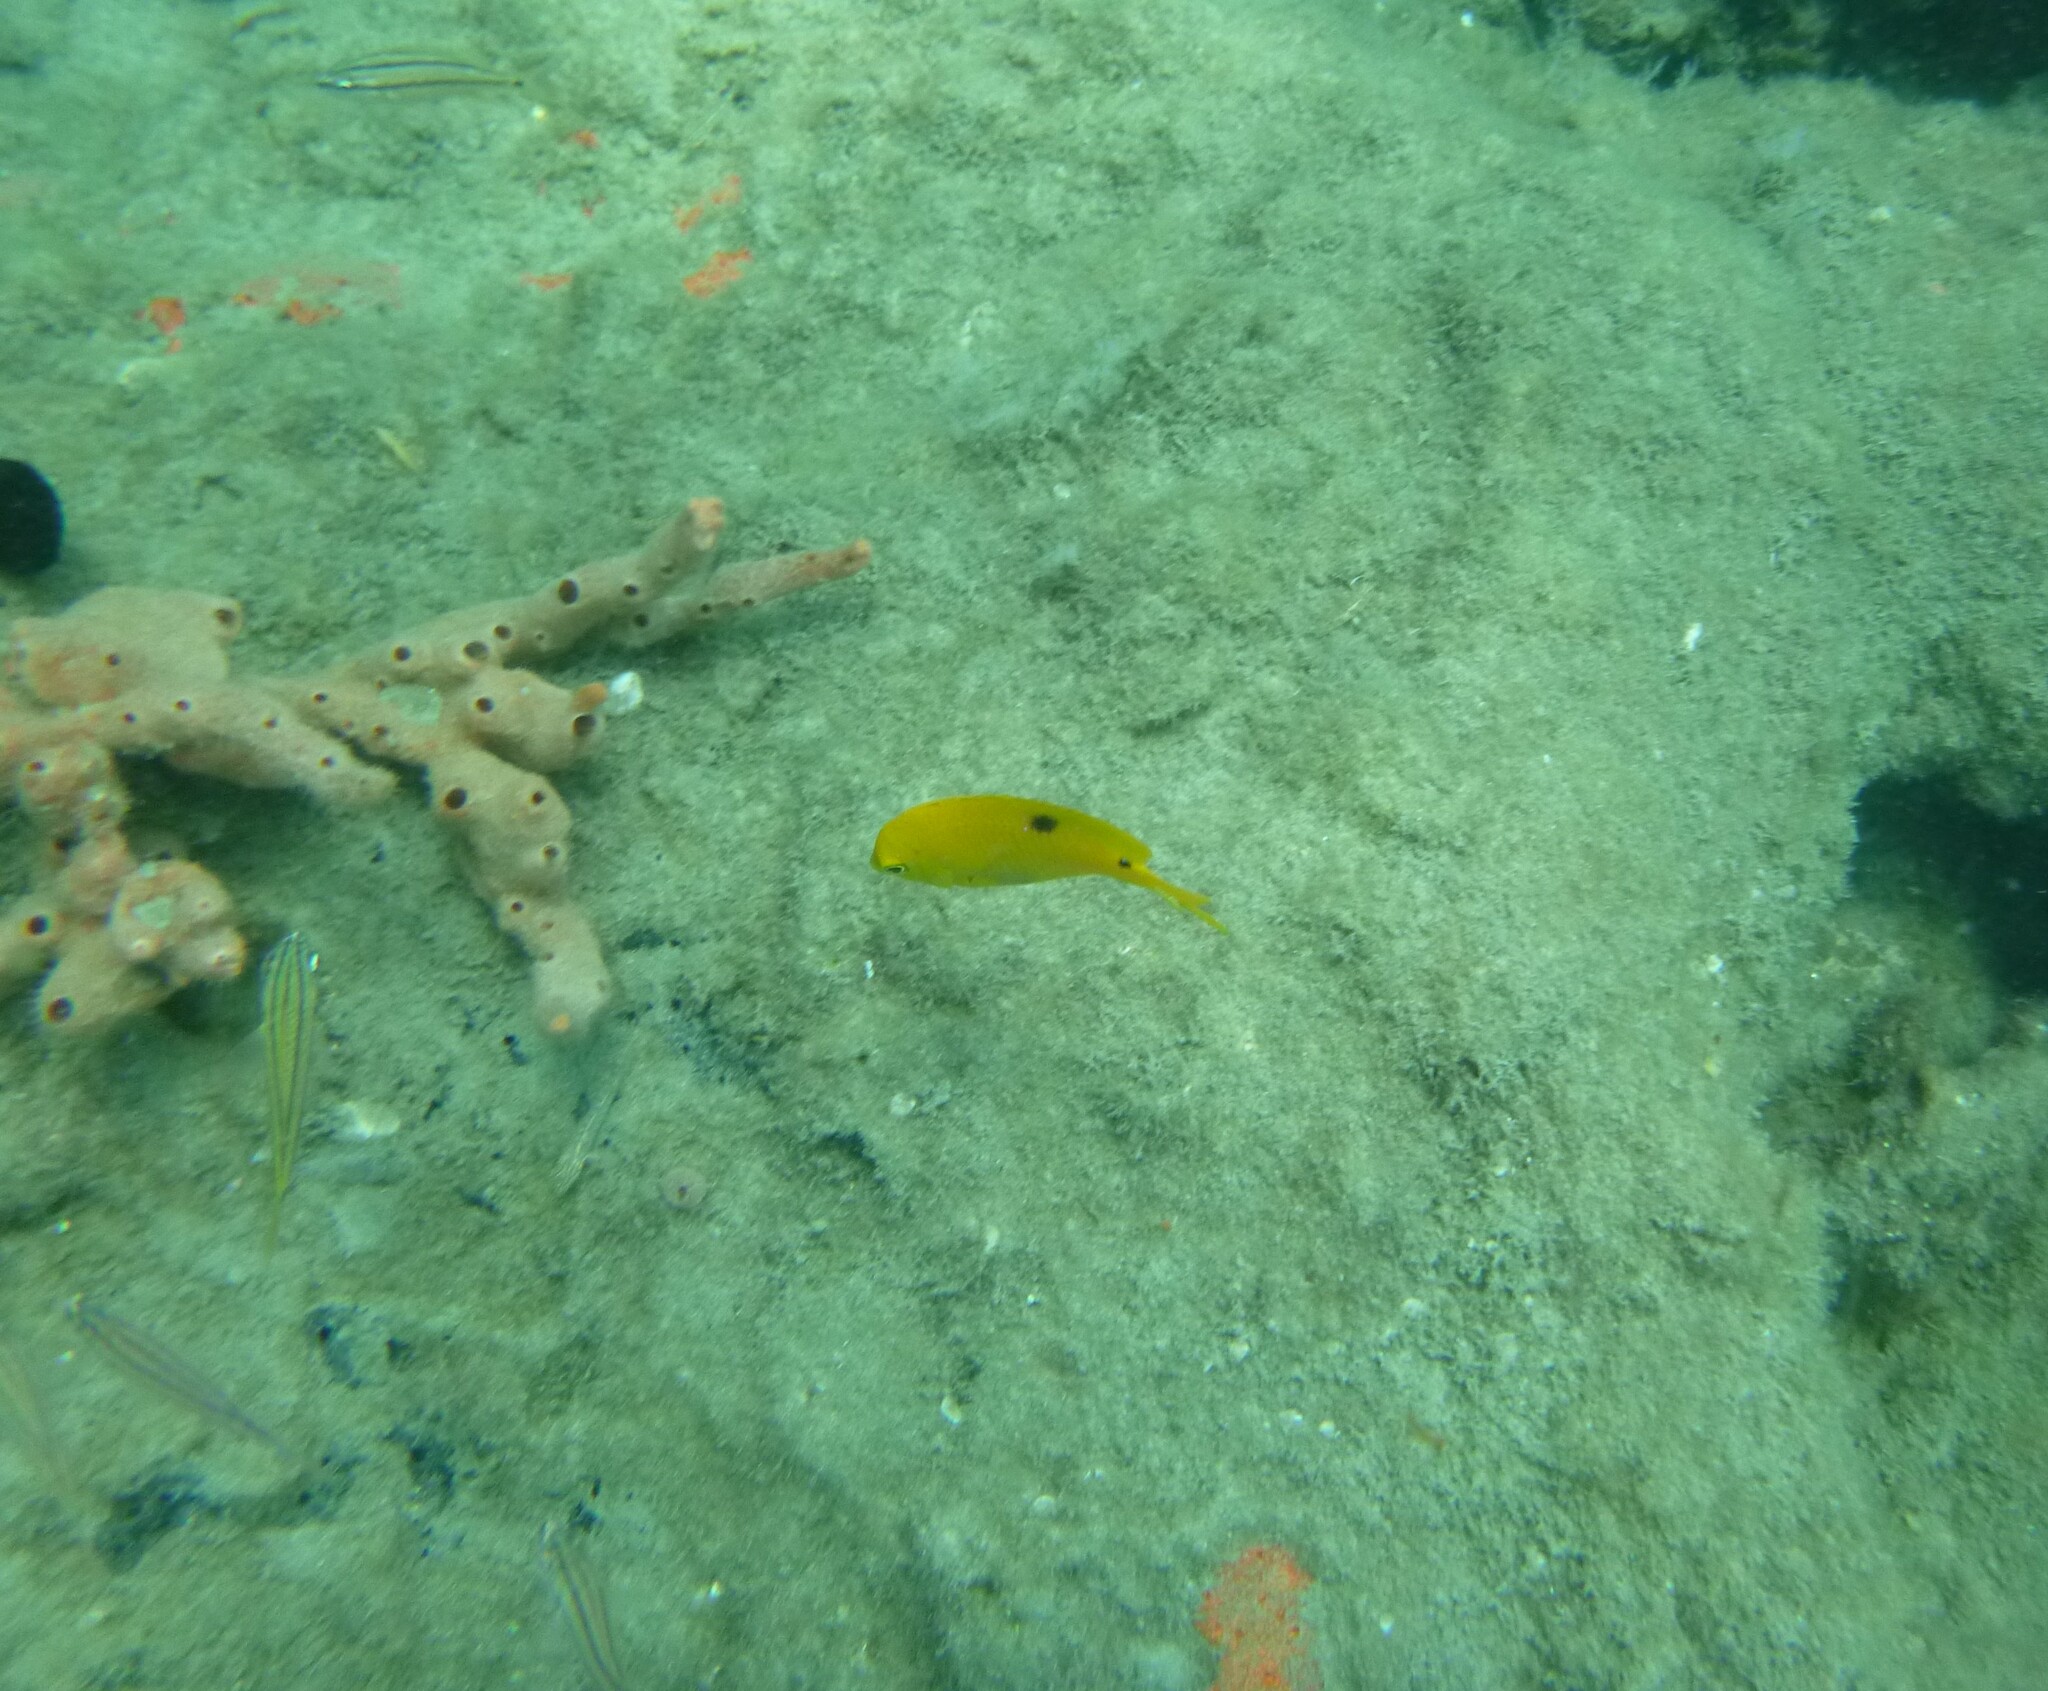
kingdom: Animalia
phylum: Chordata
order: Perciformes
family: Pomacentridae
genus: Stegastes
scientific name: Stegastes planifrons
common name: Threespot damselfish
